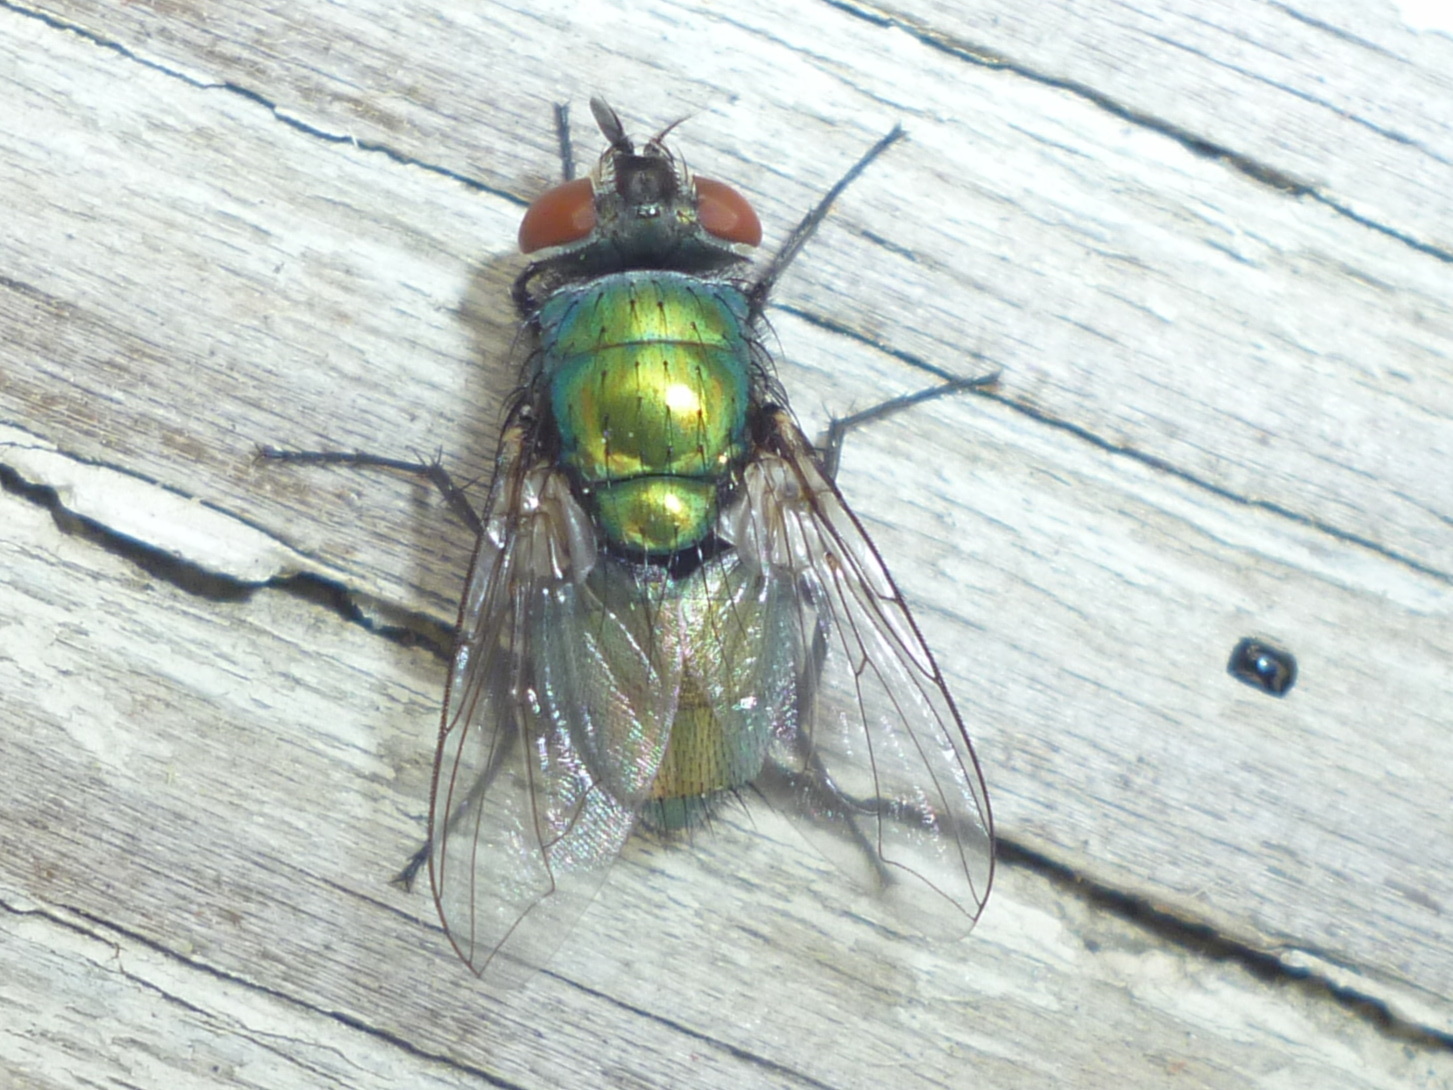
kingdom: Animalia
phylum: Arthropoda
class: Insecta
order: Diptera
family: Calliphoridae
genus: Lucilia
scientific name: Lucilia sericata
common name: Blow fly
